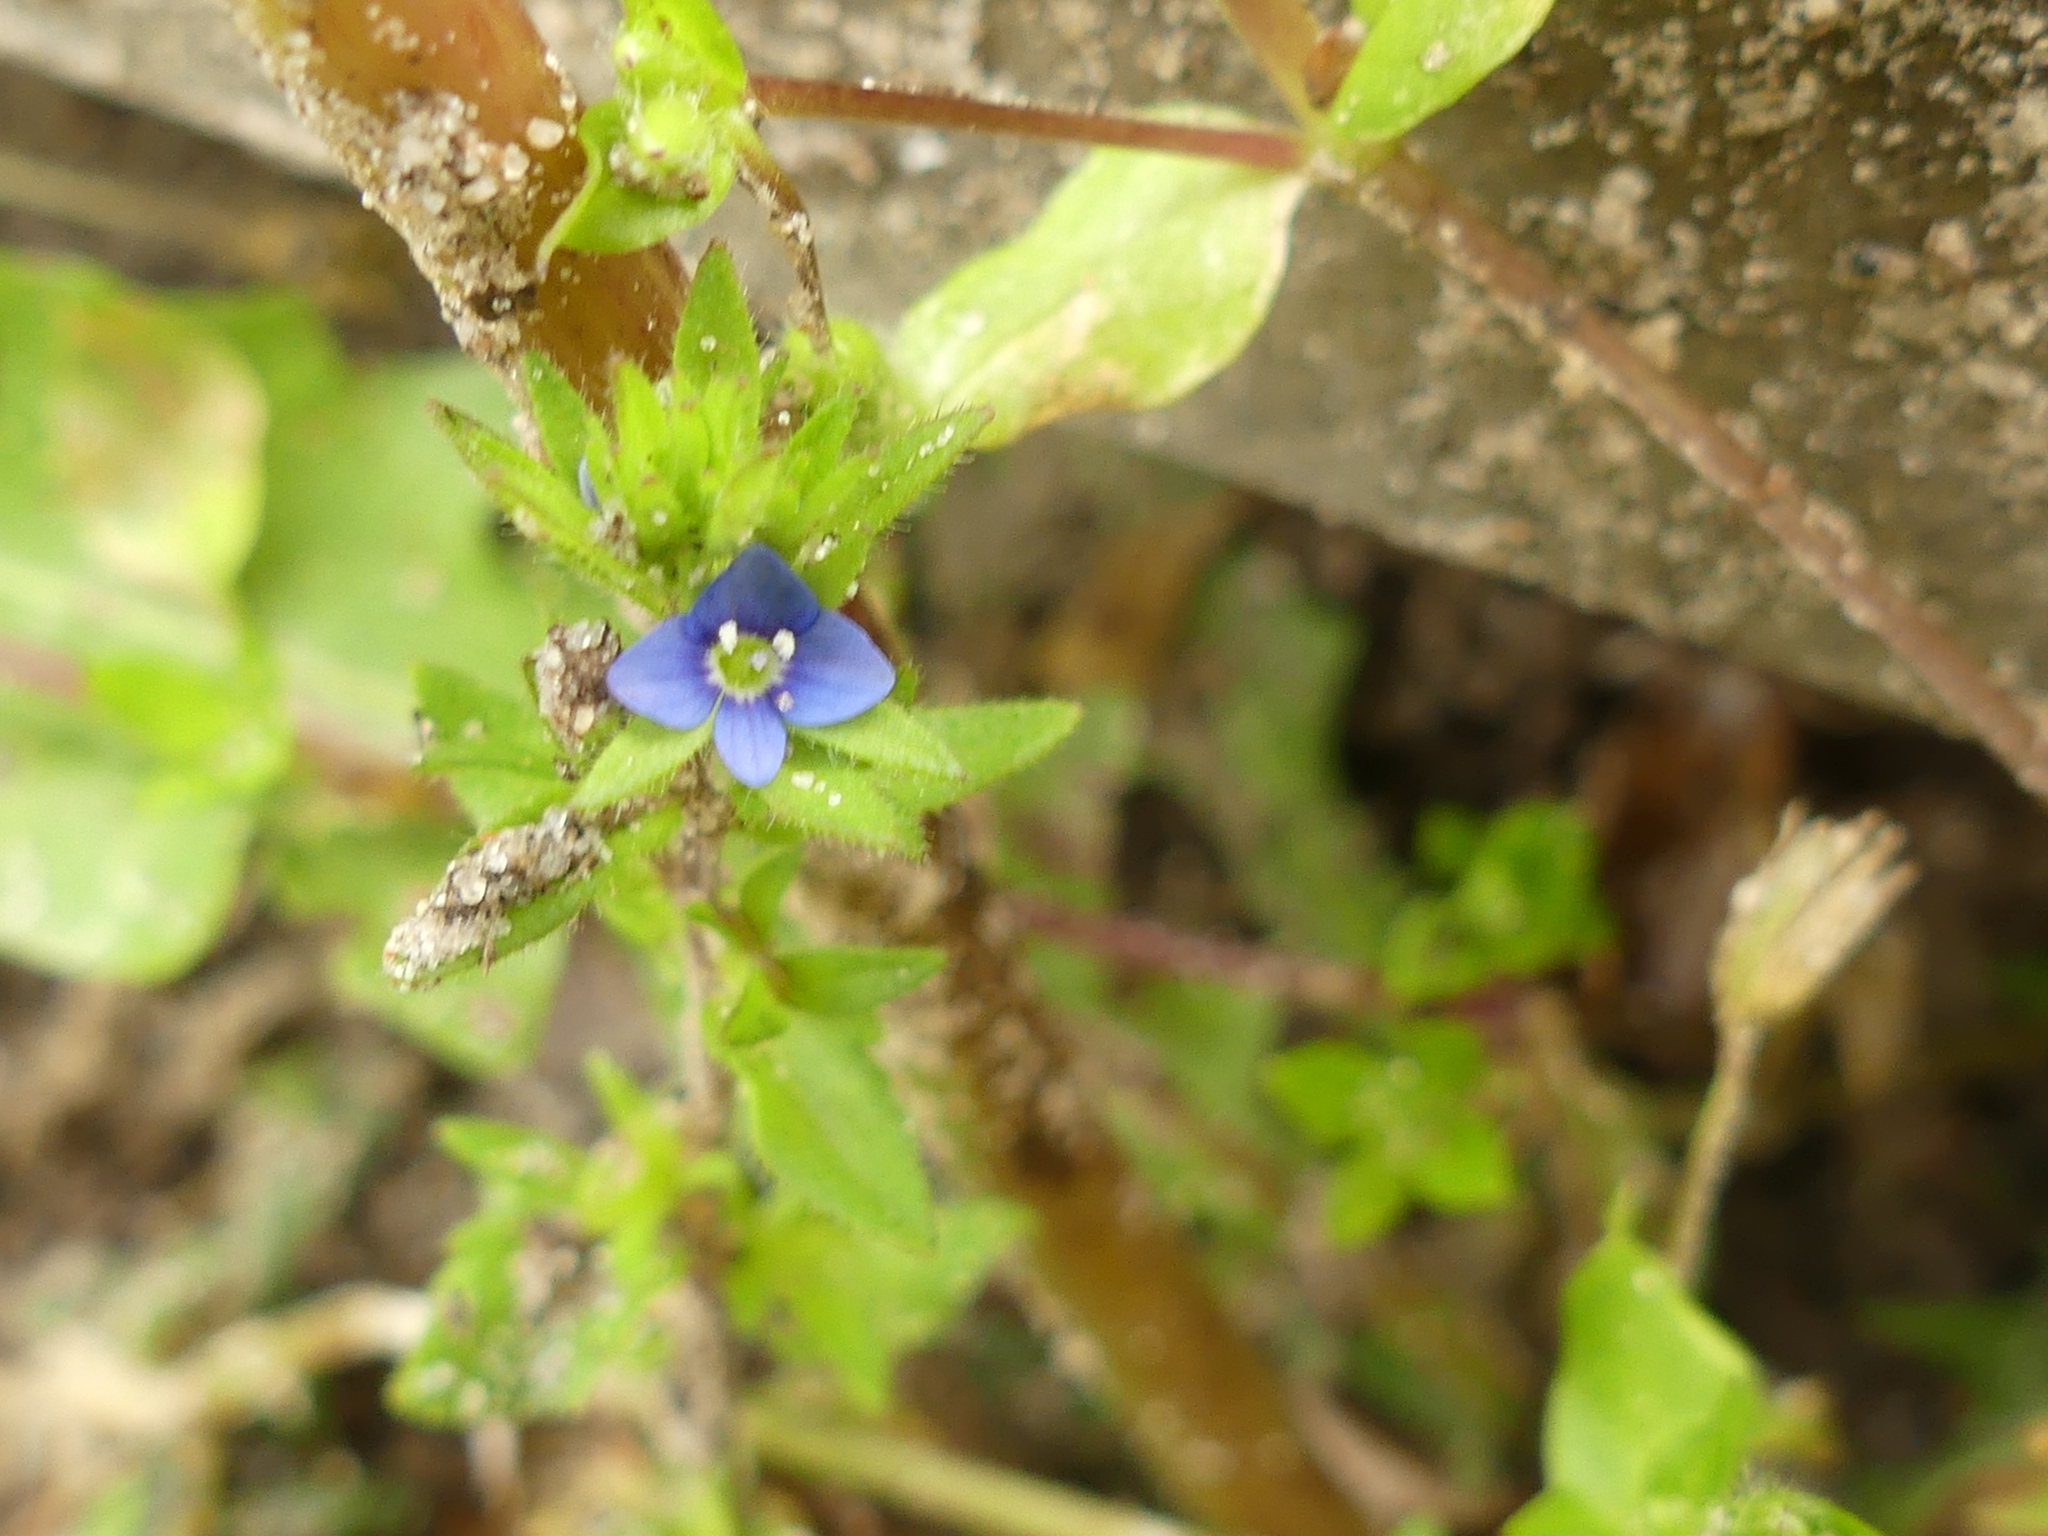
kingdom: Plantae
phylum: Tracheophyta
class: Magnoliopsida
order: Lamiales
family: Plantaginaceae
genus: Veronica
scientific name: Veronica arvensis
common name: Corn speedwell
